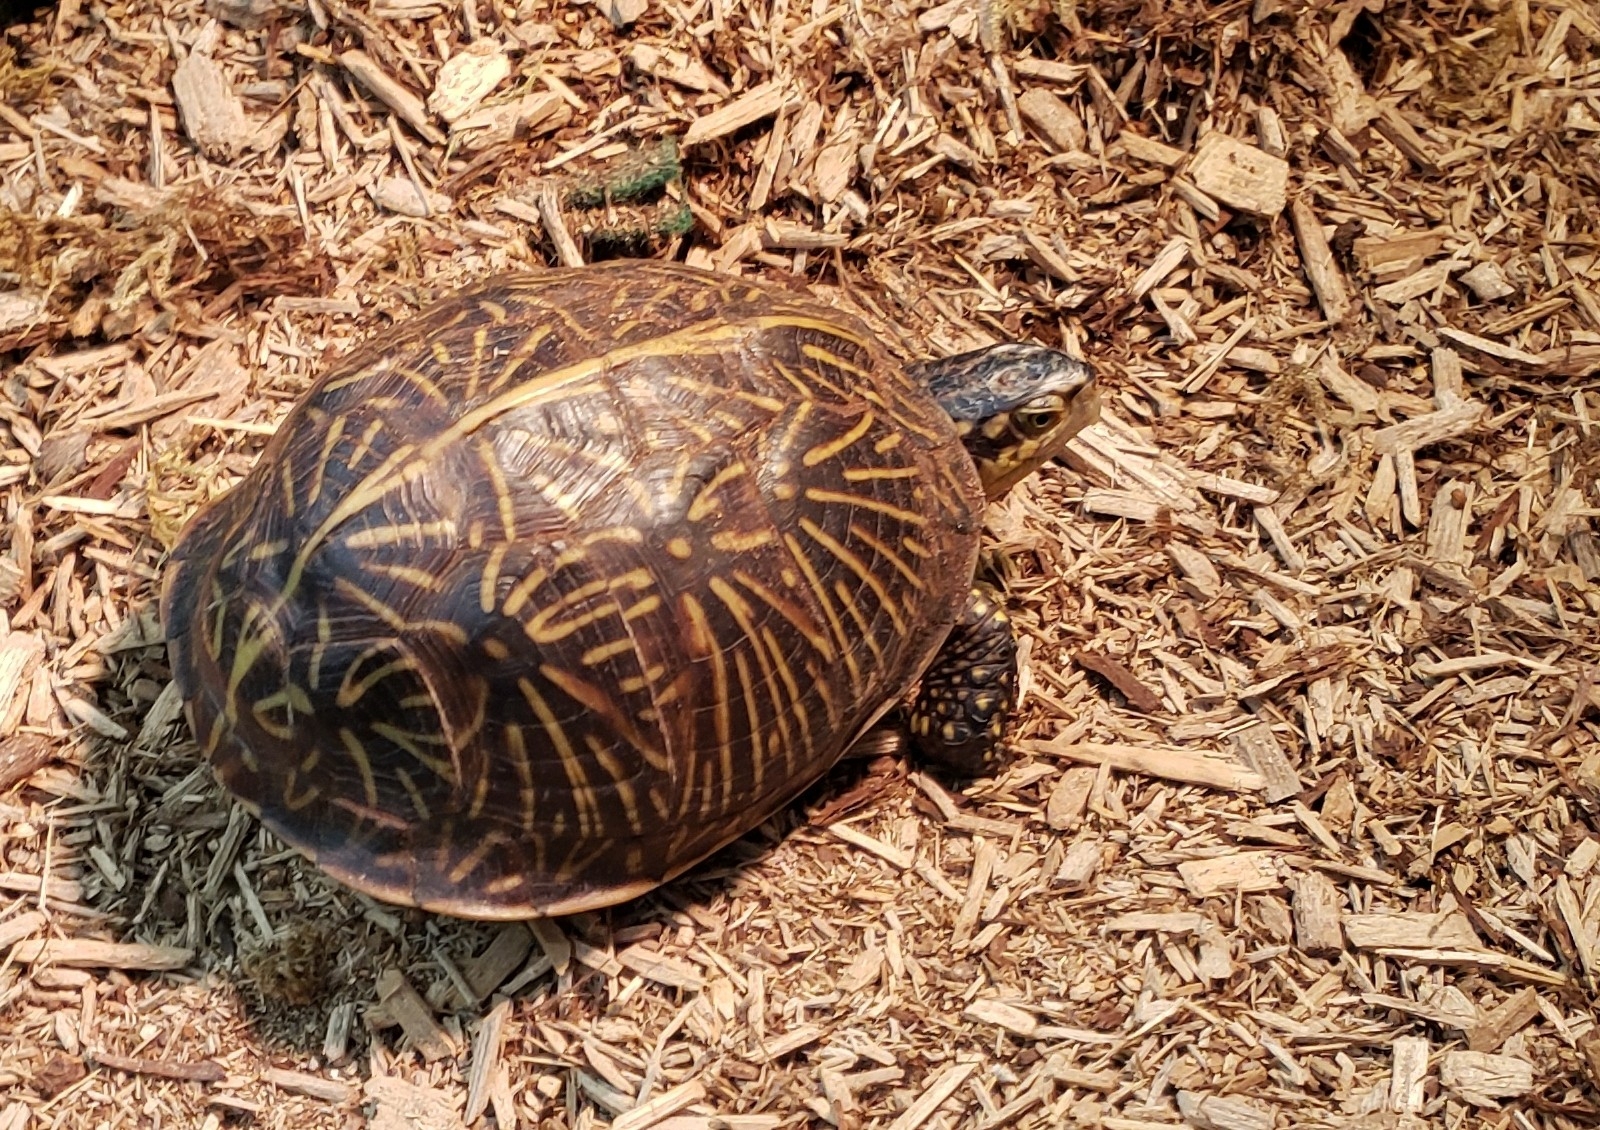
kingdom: Animalia
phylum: Chordata
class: Testudines
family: Emydidae
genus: Terrapene
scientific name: Terrapene carolina
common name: Common box turtle
